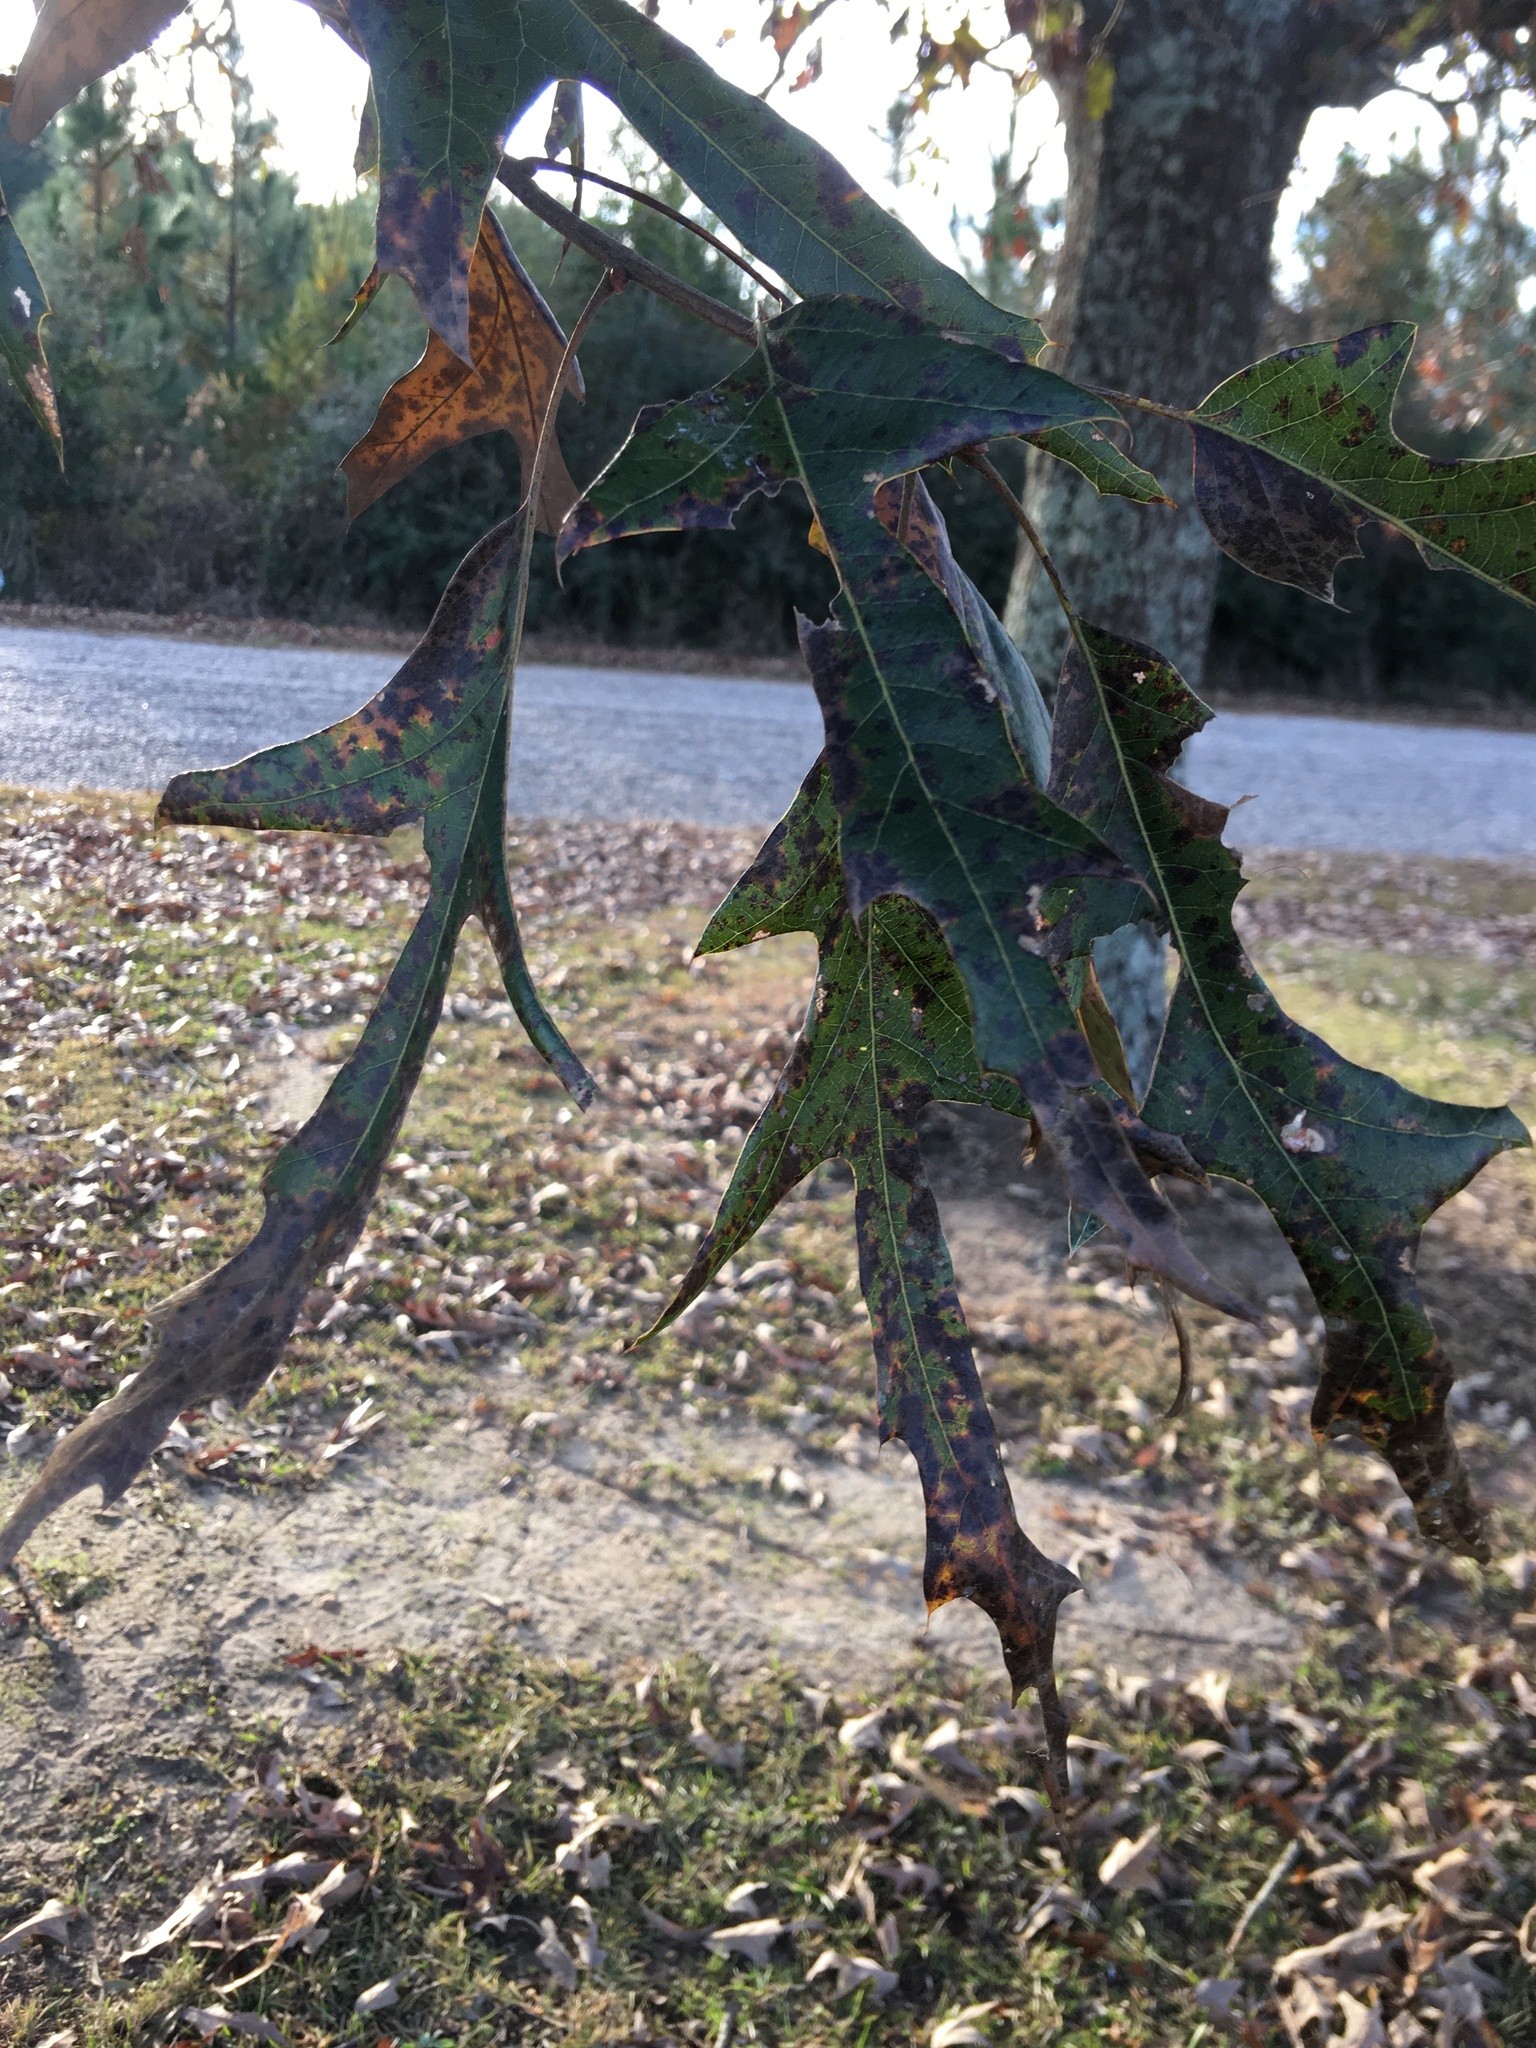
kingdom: Plantae
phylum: Tracheophyta
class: Magnoliopsida
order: Fagales
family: Fagaceae
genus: Quercus
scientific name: Quercus falcata
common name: Southern red oak
